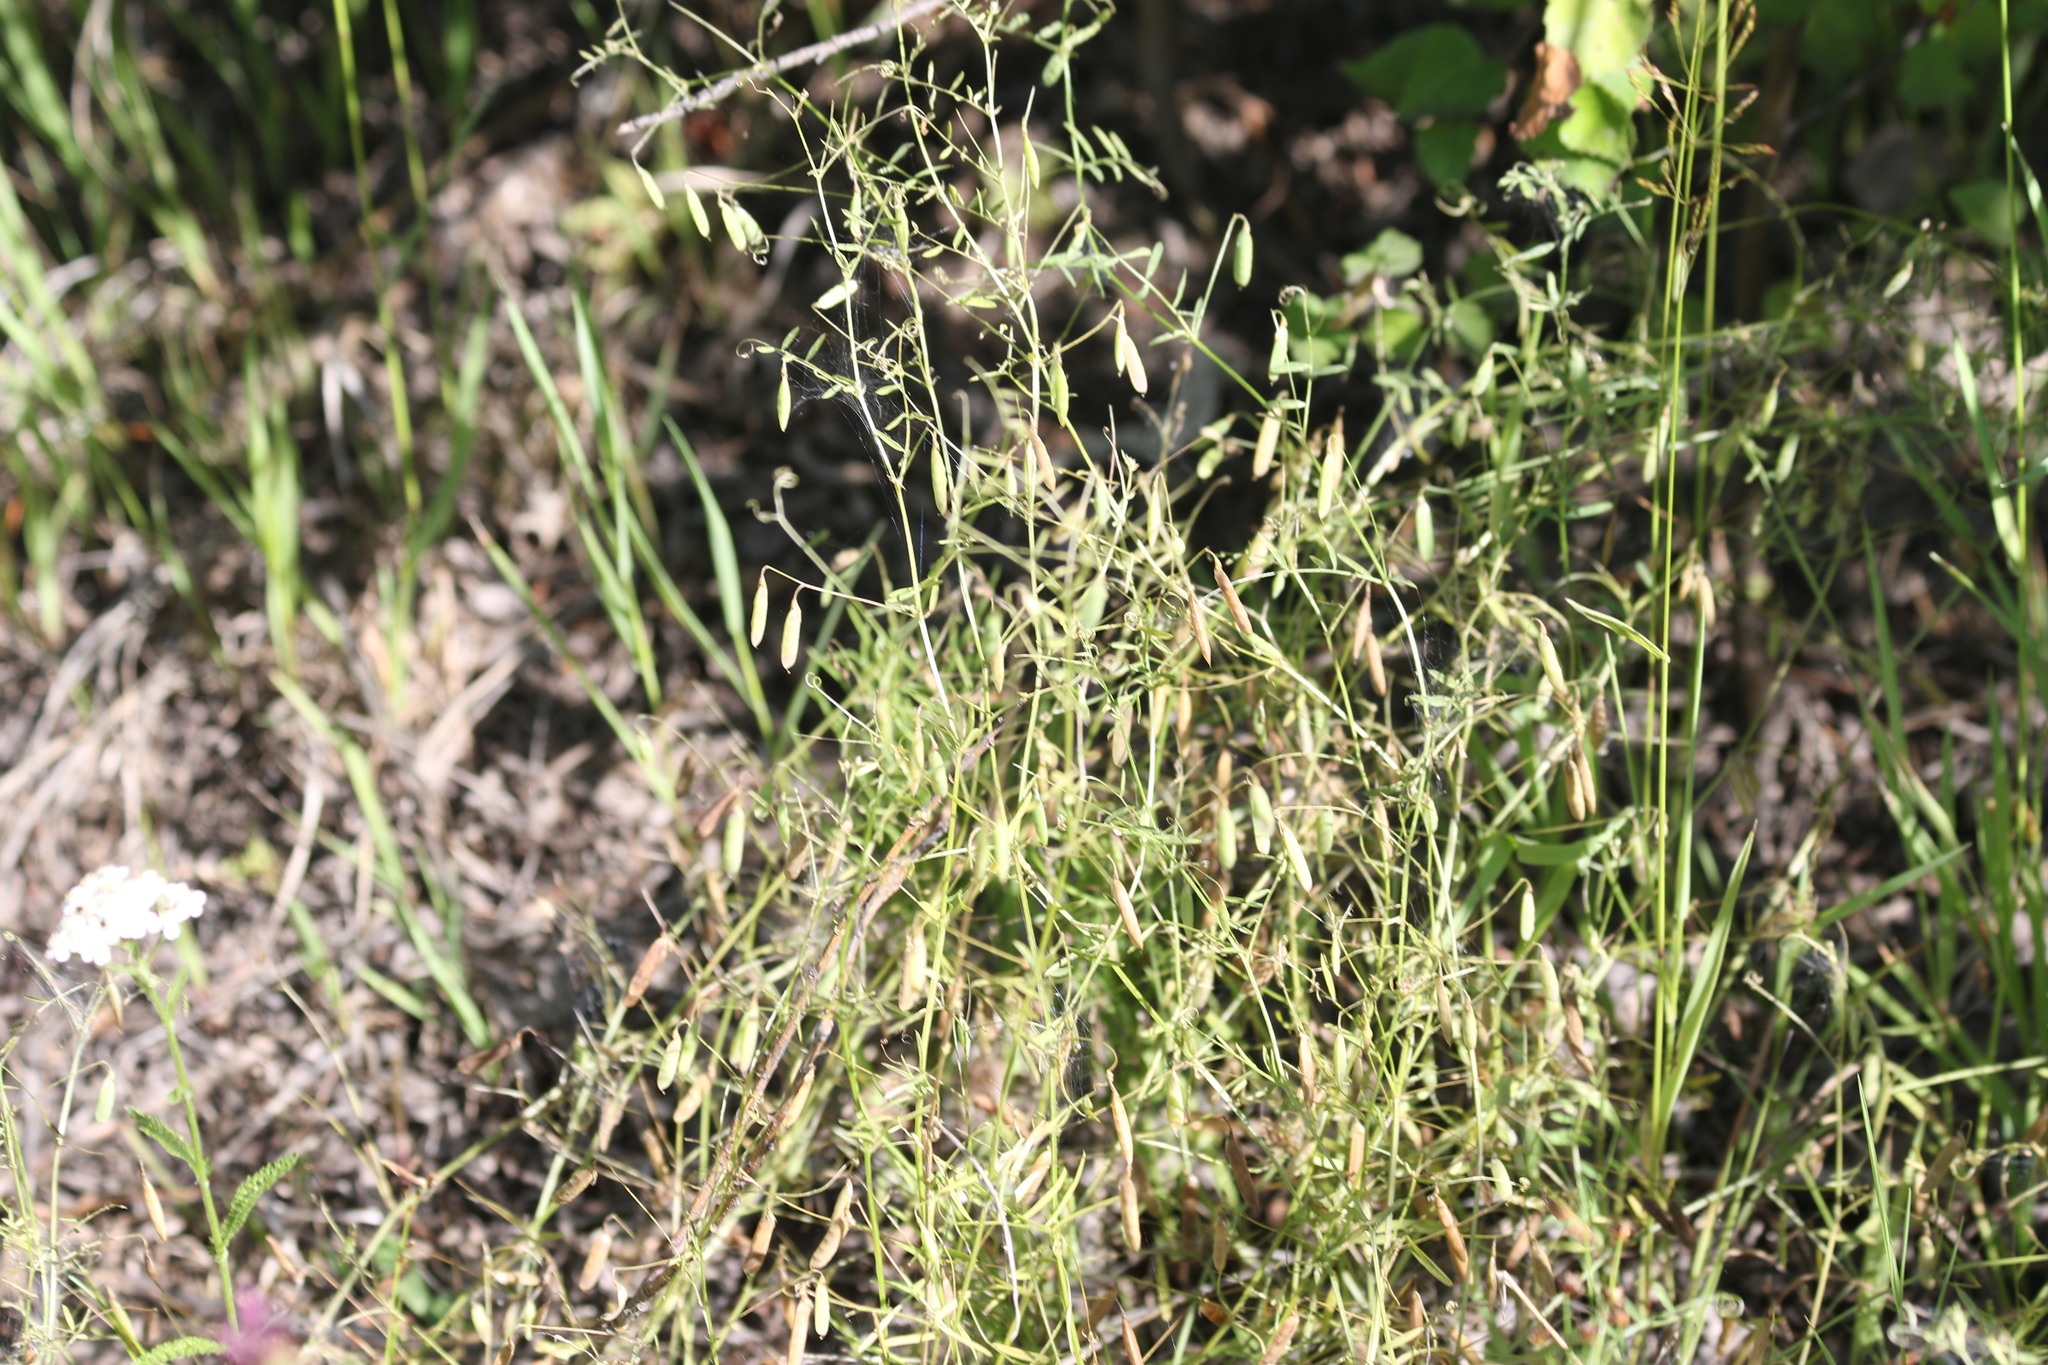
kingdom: Plantae
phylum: Tracheophyta
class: Magnoliopsida
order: Fabales
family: Fabaceae
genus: Vicia
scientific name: Vicia tetrasperma
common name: Smooth tare
